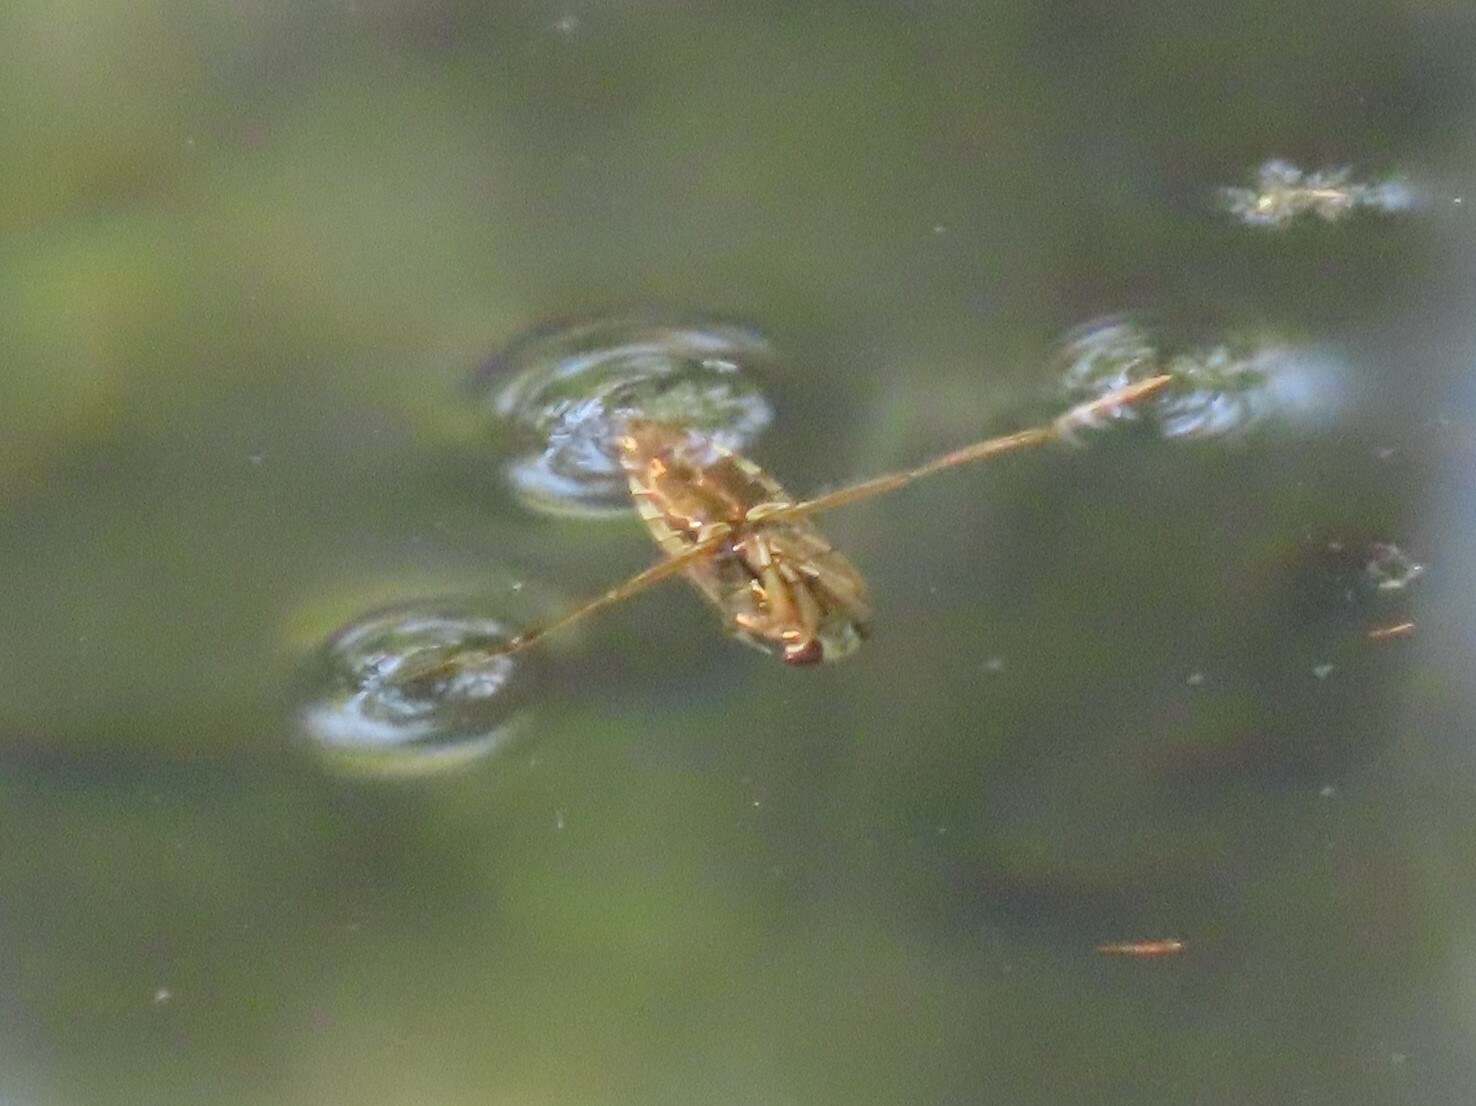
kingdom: Animalia
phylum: Arthropoda
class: Insecta
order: Hemiptera
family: Notonectidae
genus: Notonecta
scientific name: Notonecta
